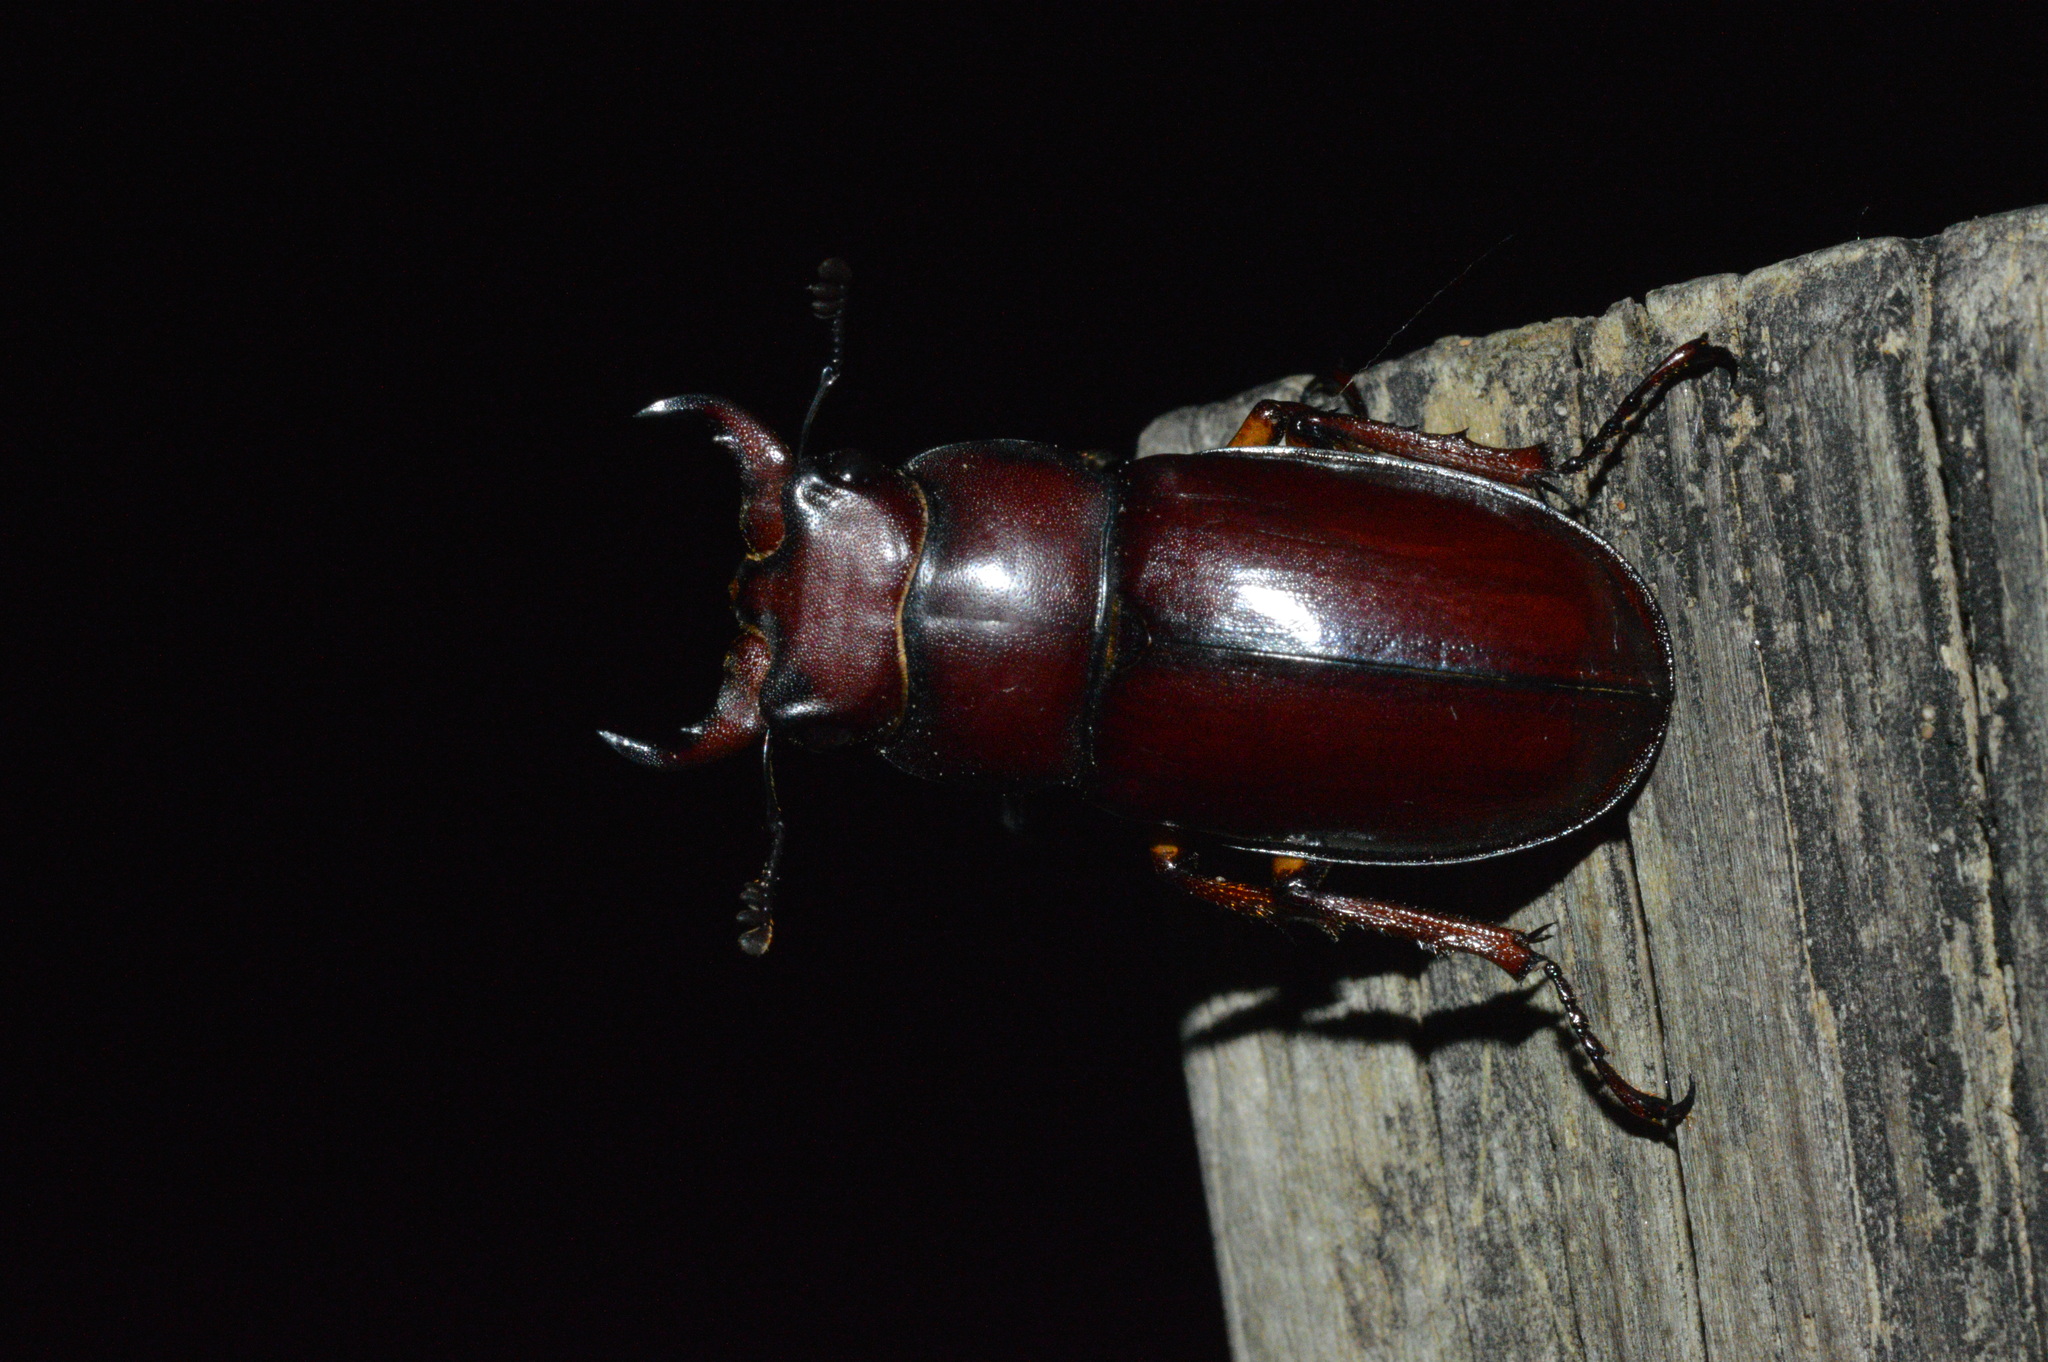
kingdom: Animalia
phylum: Arthropoda
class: Insecta
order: Coleoptera
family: Lucanidae
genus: Lucanus
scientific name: Lucanus capreolus
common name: Stag beetle
